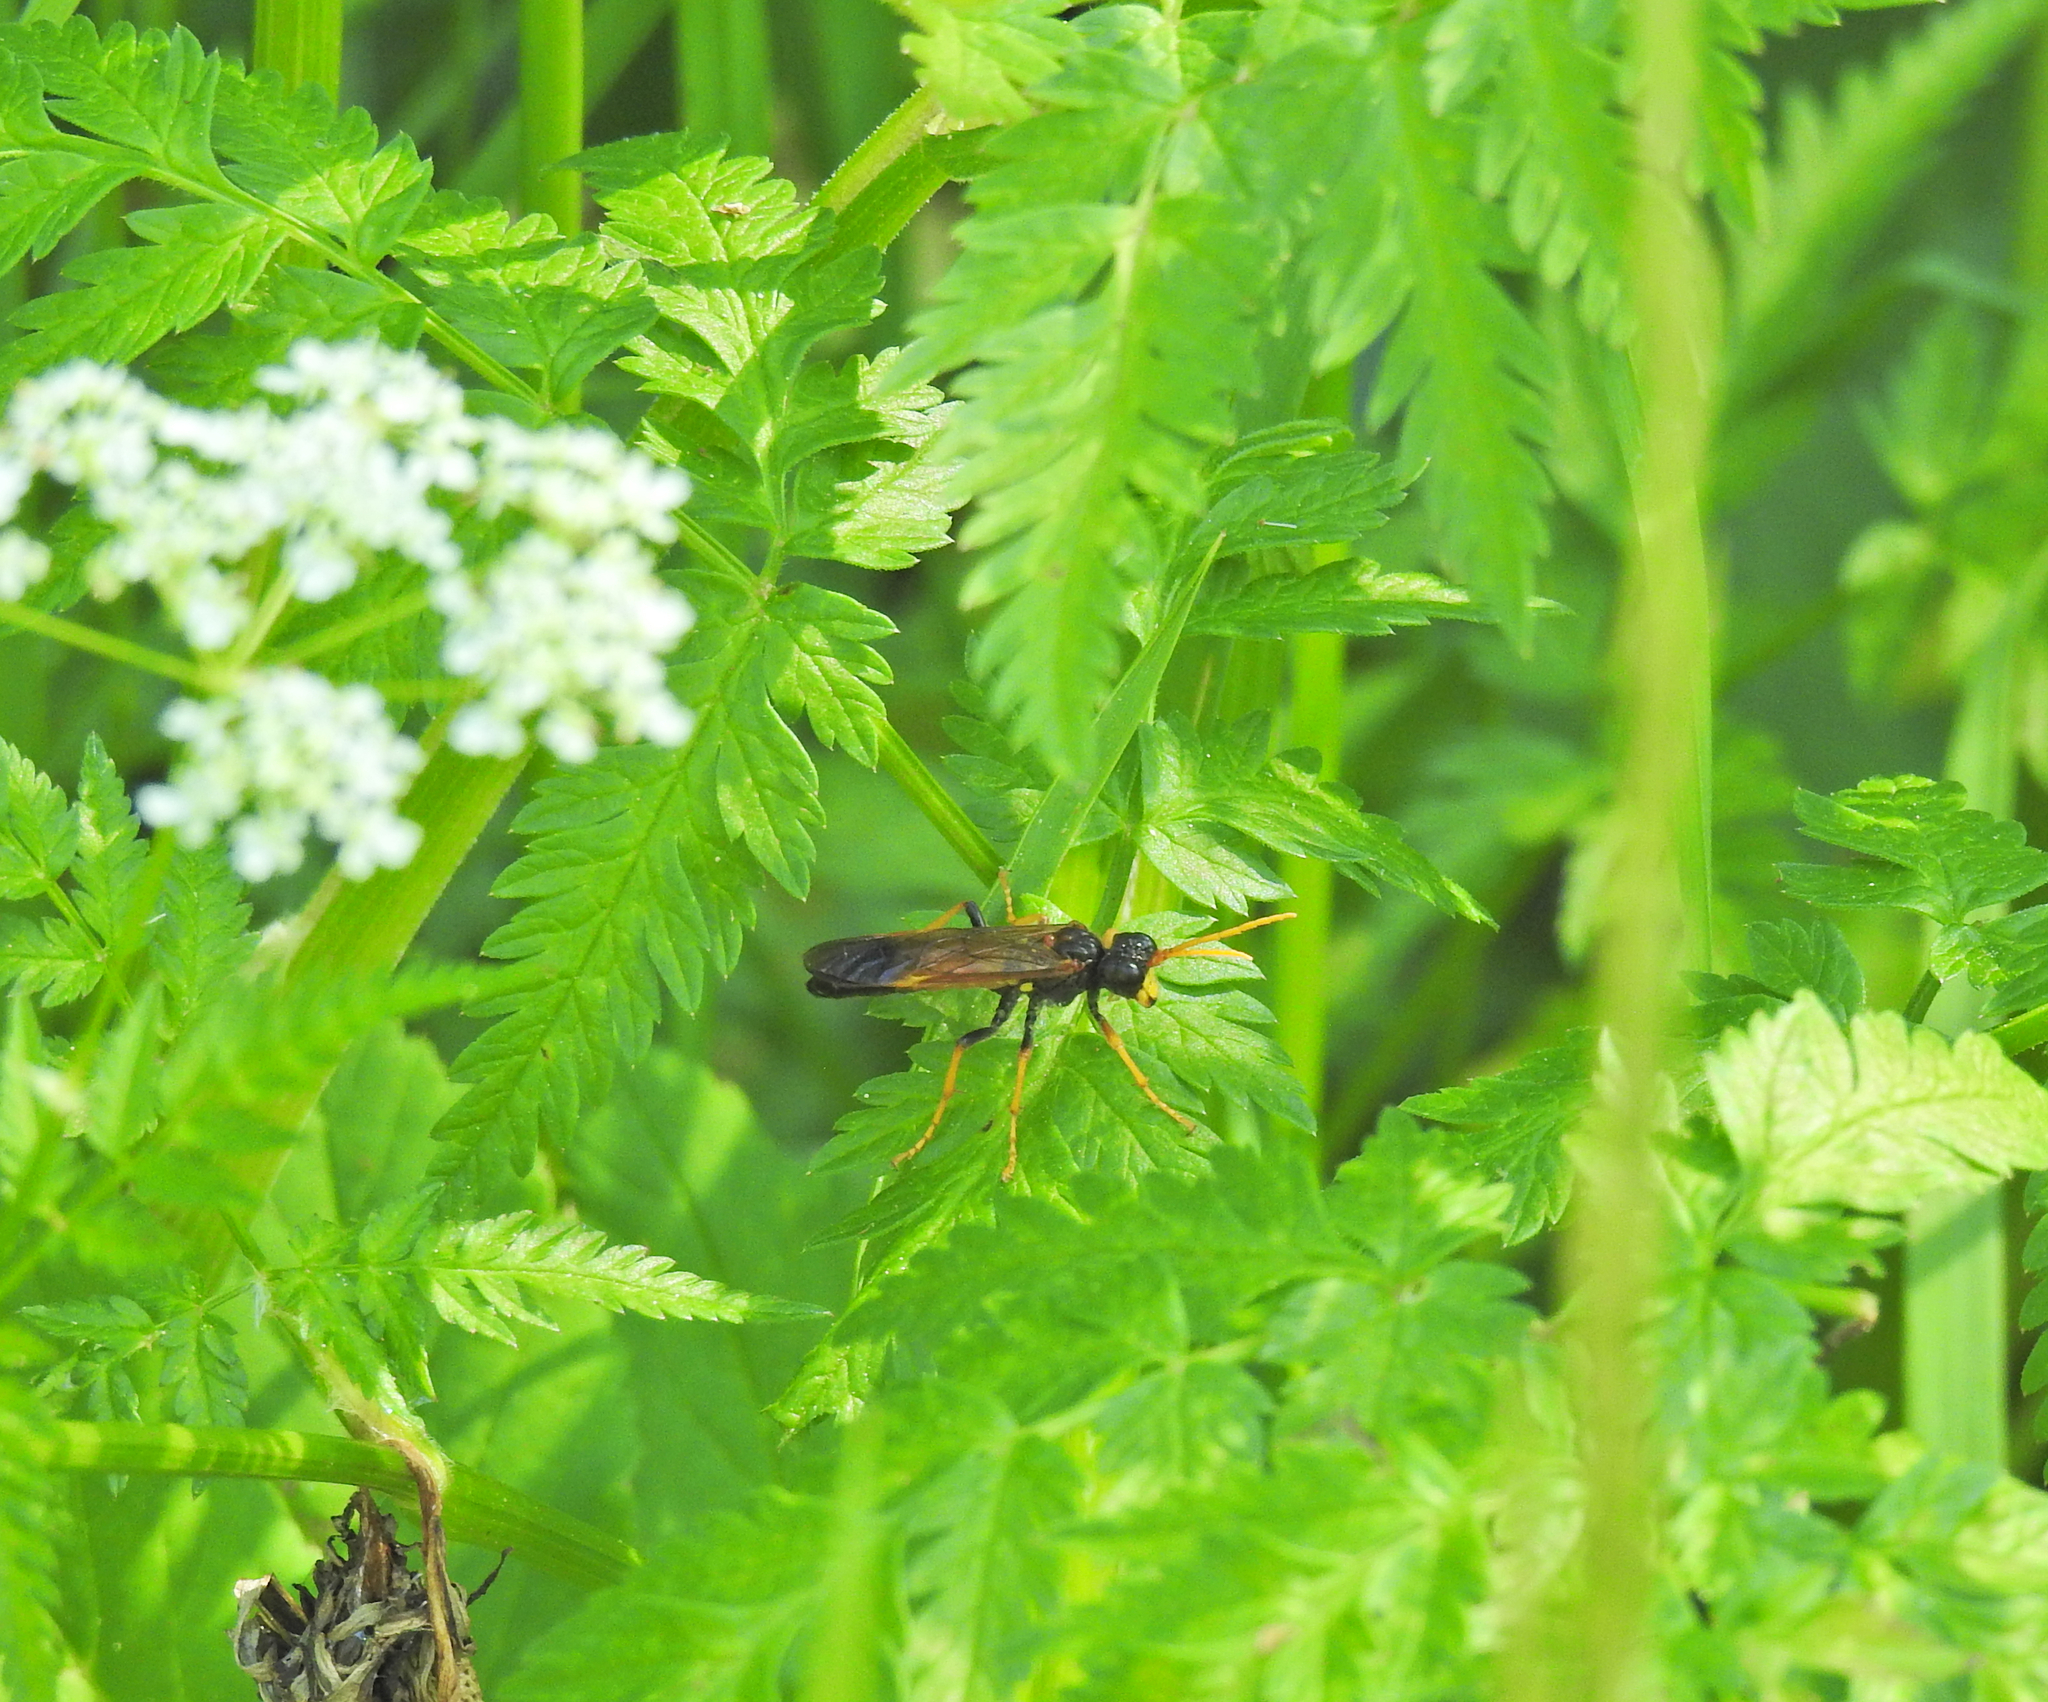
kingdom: Animalia
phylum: Arthropoda
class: Insecta
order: Hymenoptera
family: Tenthredinidae
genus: Tenthredo
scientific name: Tenthredo campestris
